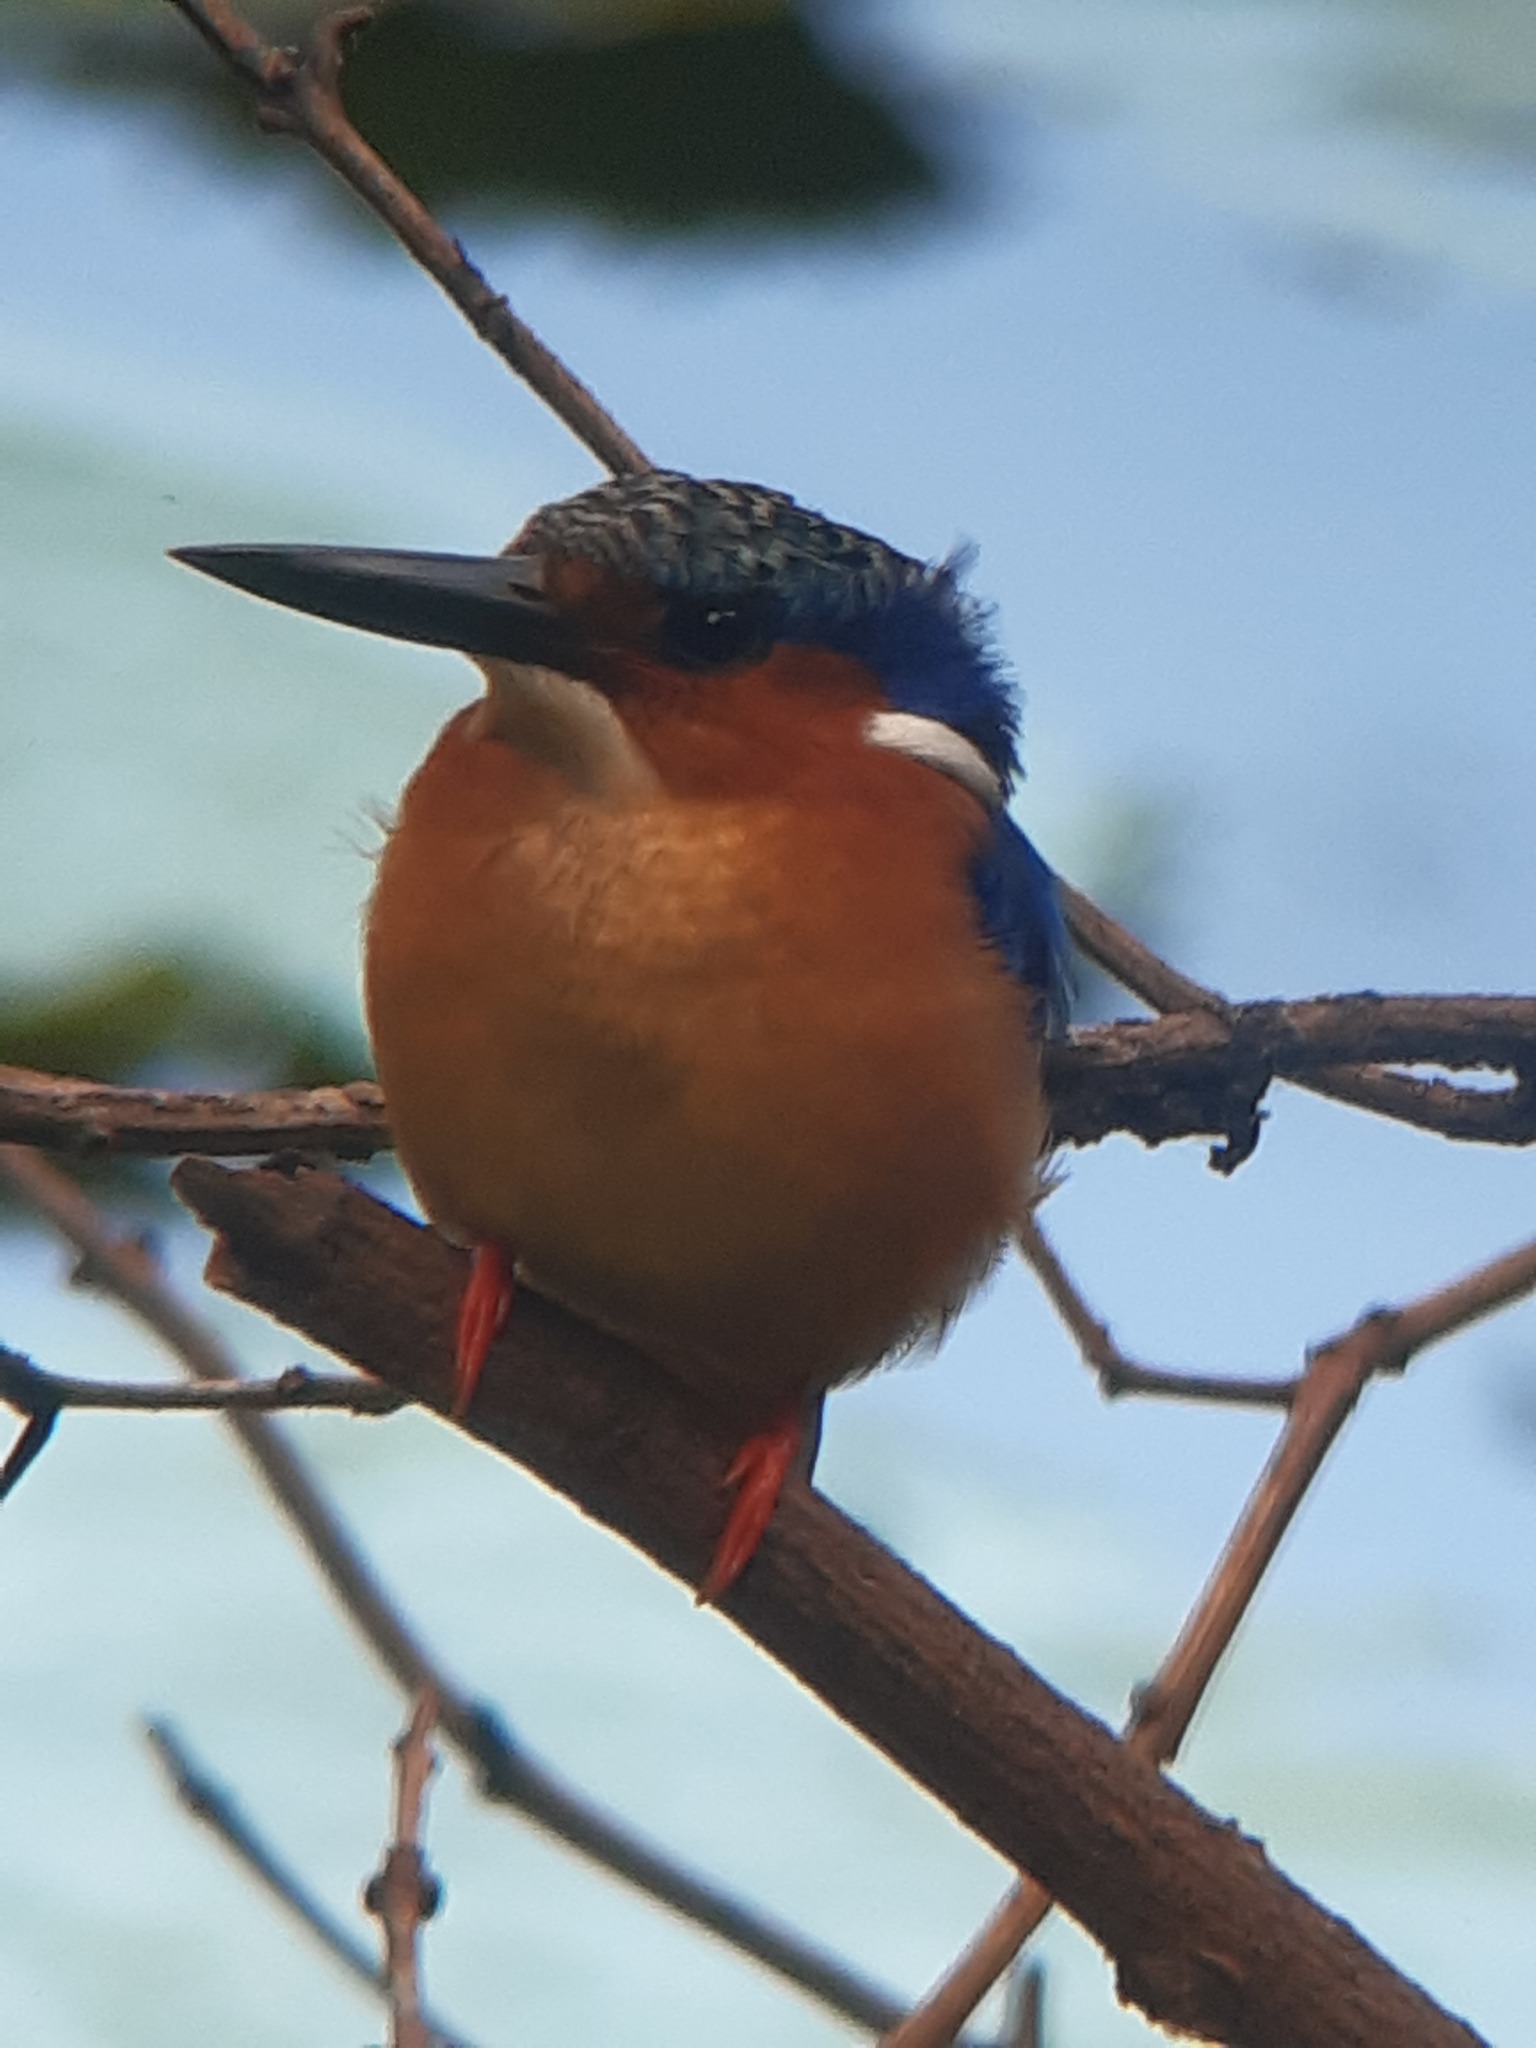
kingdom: Animalia
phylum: Chordata
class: Aves
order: Coraciiformes
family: Alcedinidae
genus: Corythornis
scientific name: Corythornis vintsioides
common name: Malagasy kingfisher
